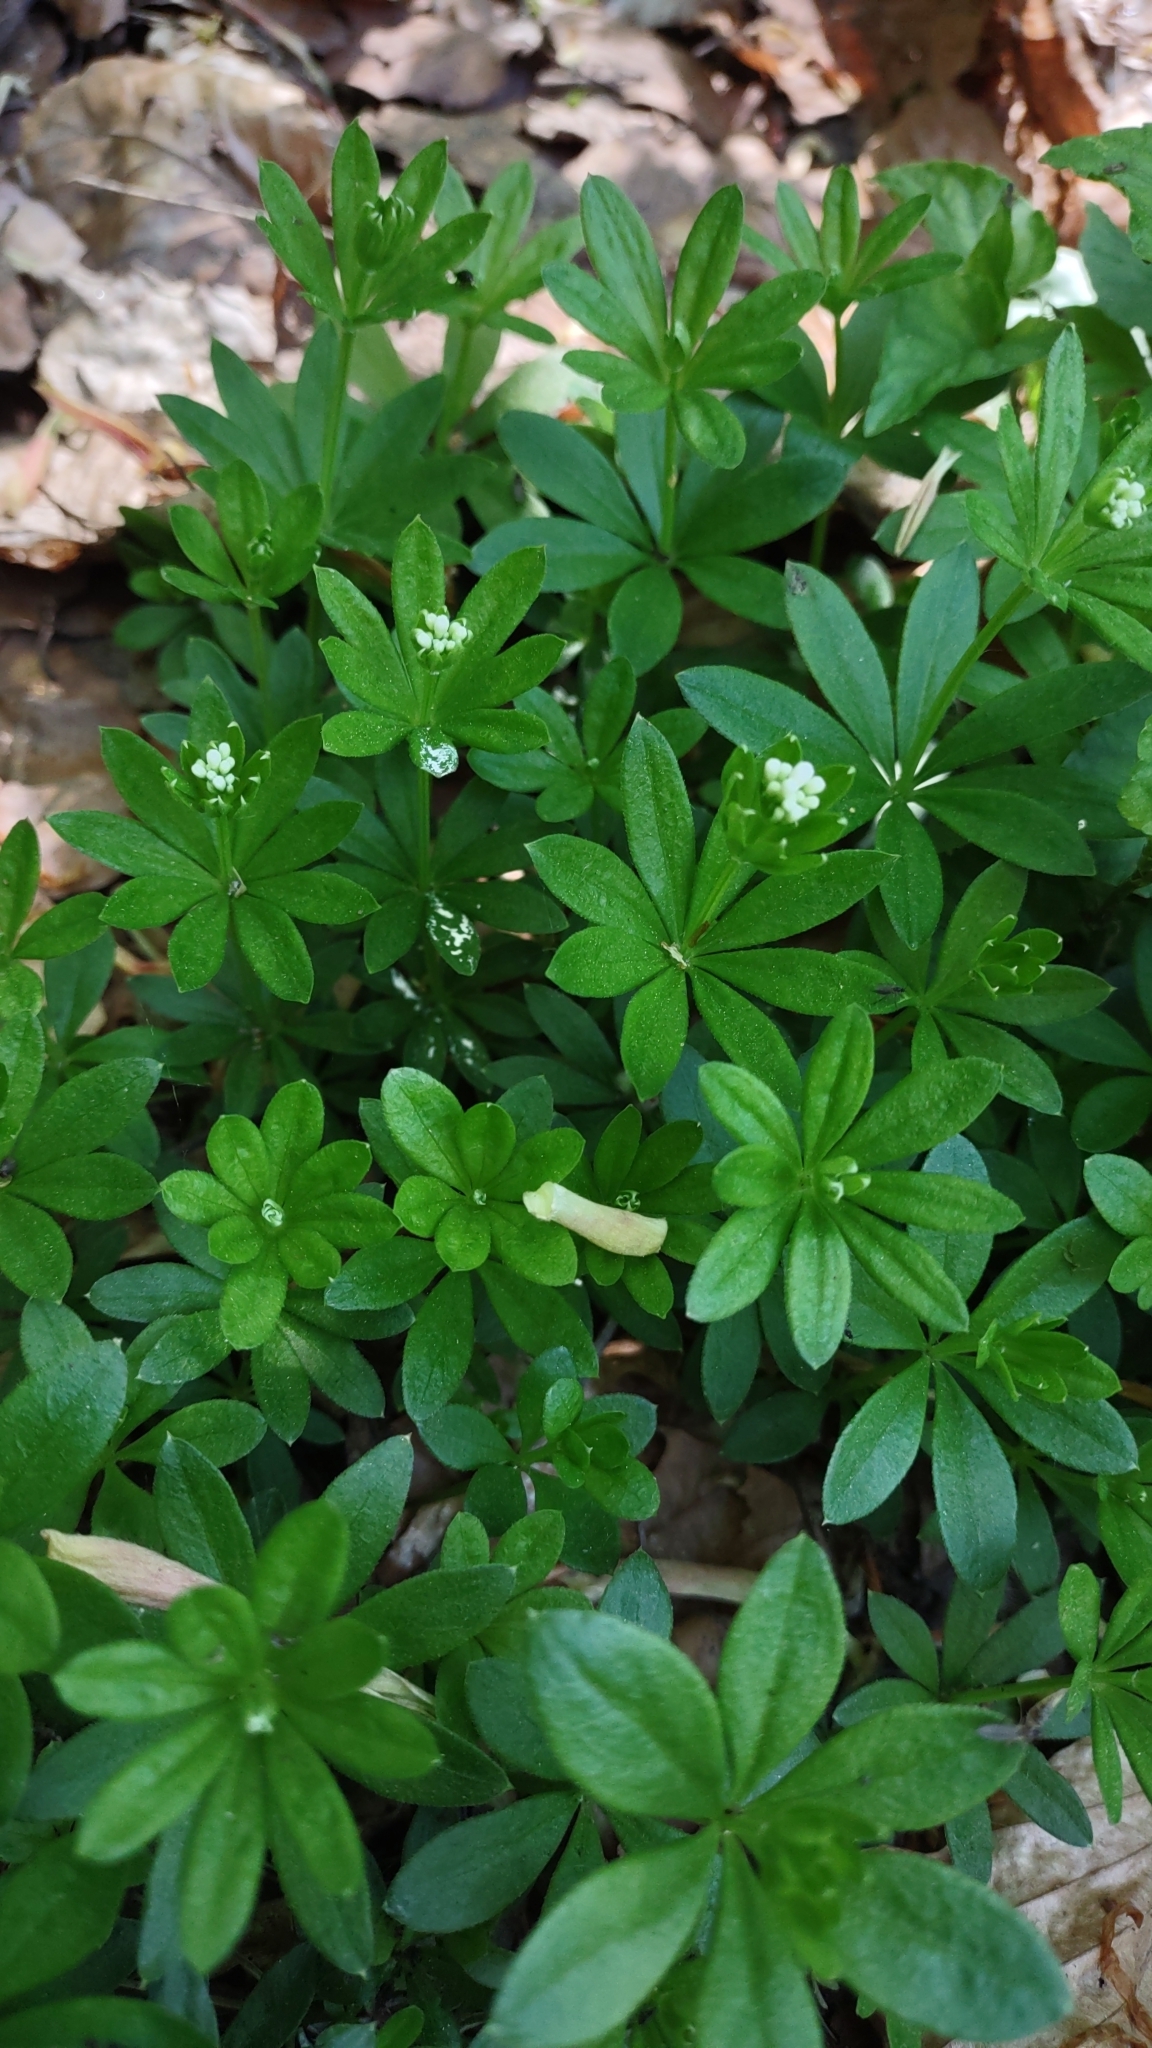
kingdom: Plantae
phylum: Tracheophyta
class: Magnoliopsida
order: Gentianales
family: Rubiaceae
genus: Galium
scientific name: Galium odoratum
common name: Sweet woodruff
